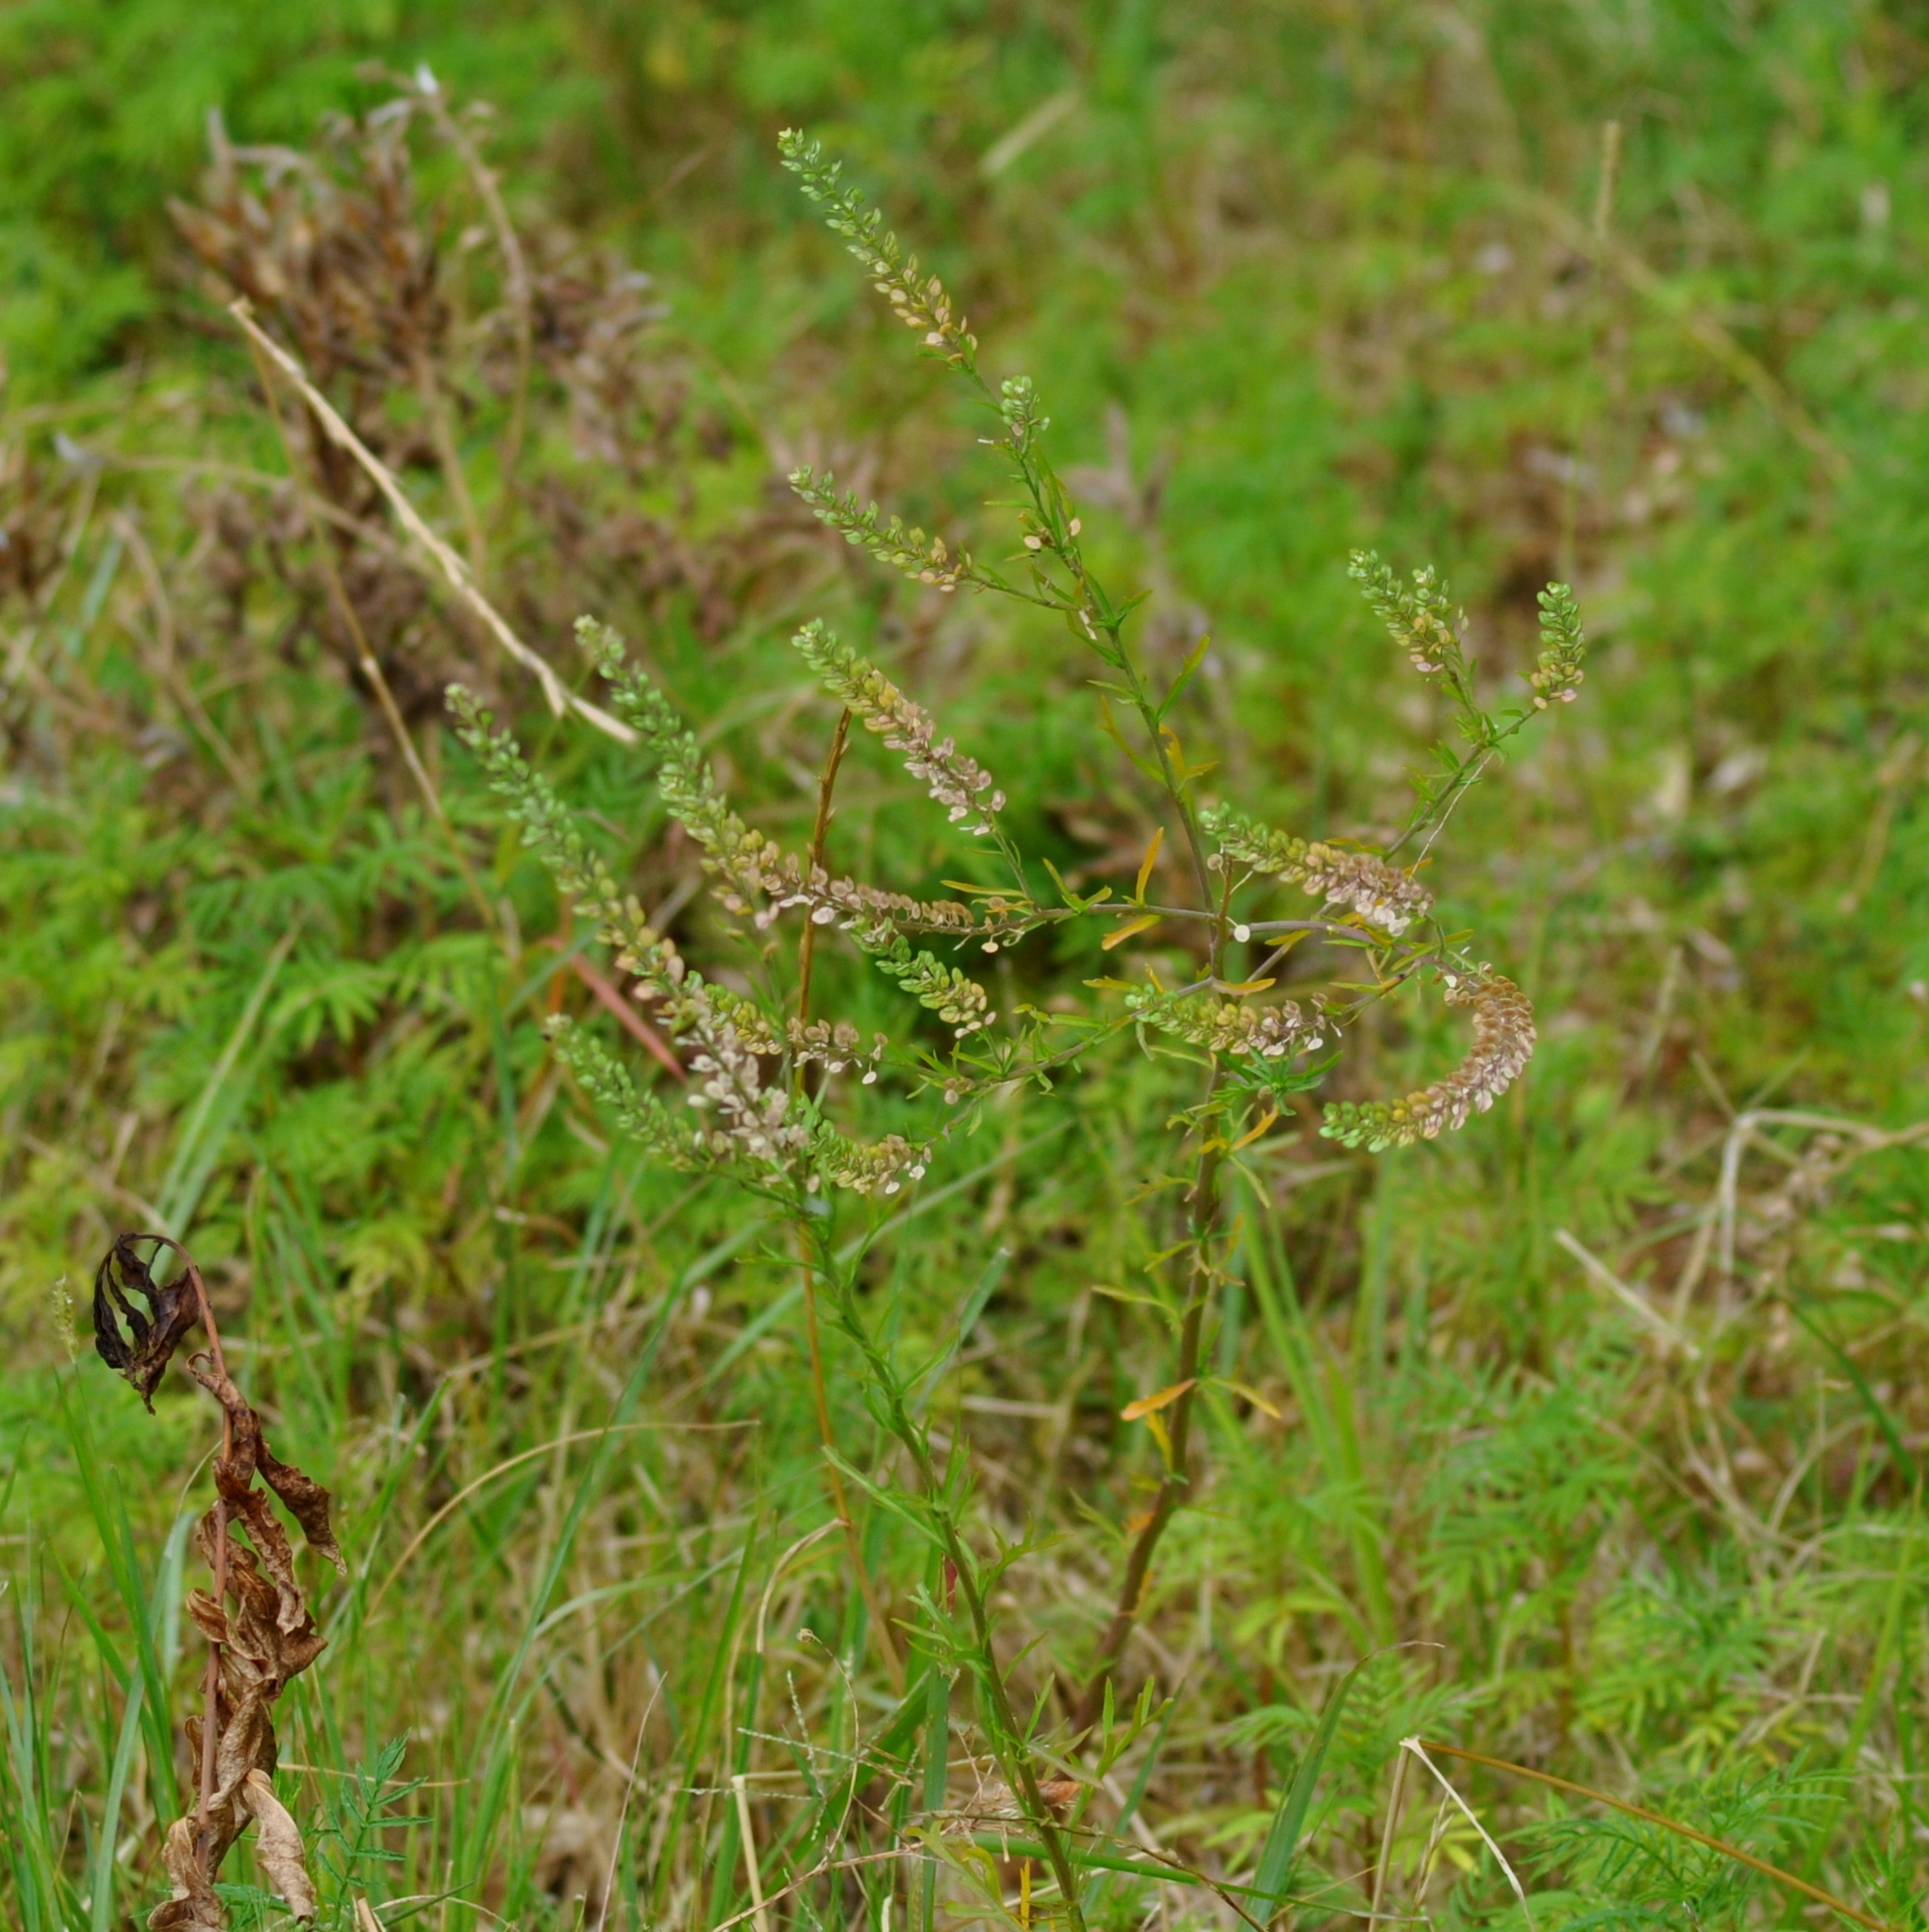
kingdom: Plantae
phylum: Tracheophyta
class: Magnoliopsida
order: Brassicales
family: Brassicaceae
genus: Lepidium
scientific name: Lepidium auriculatum
